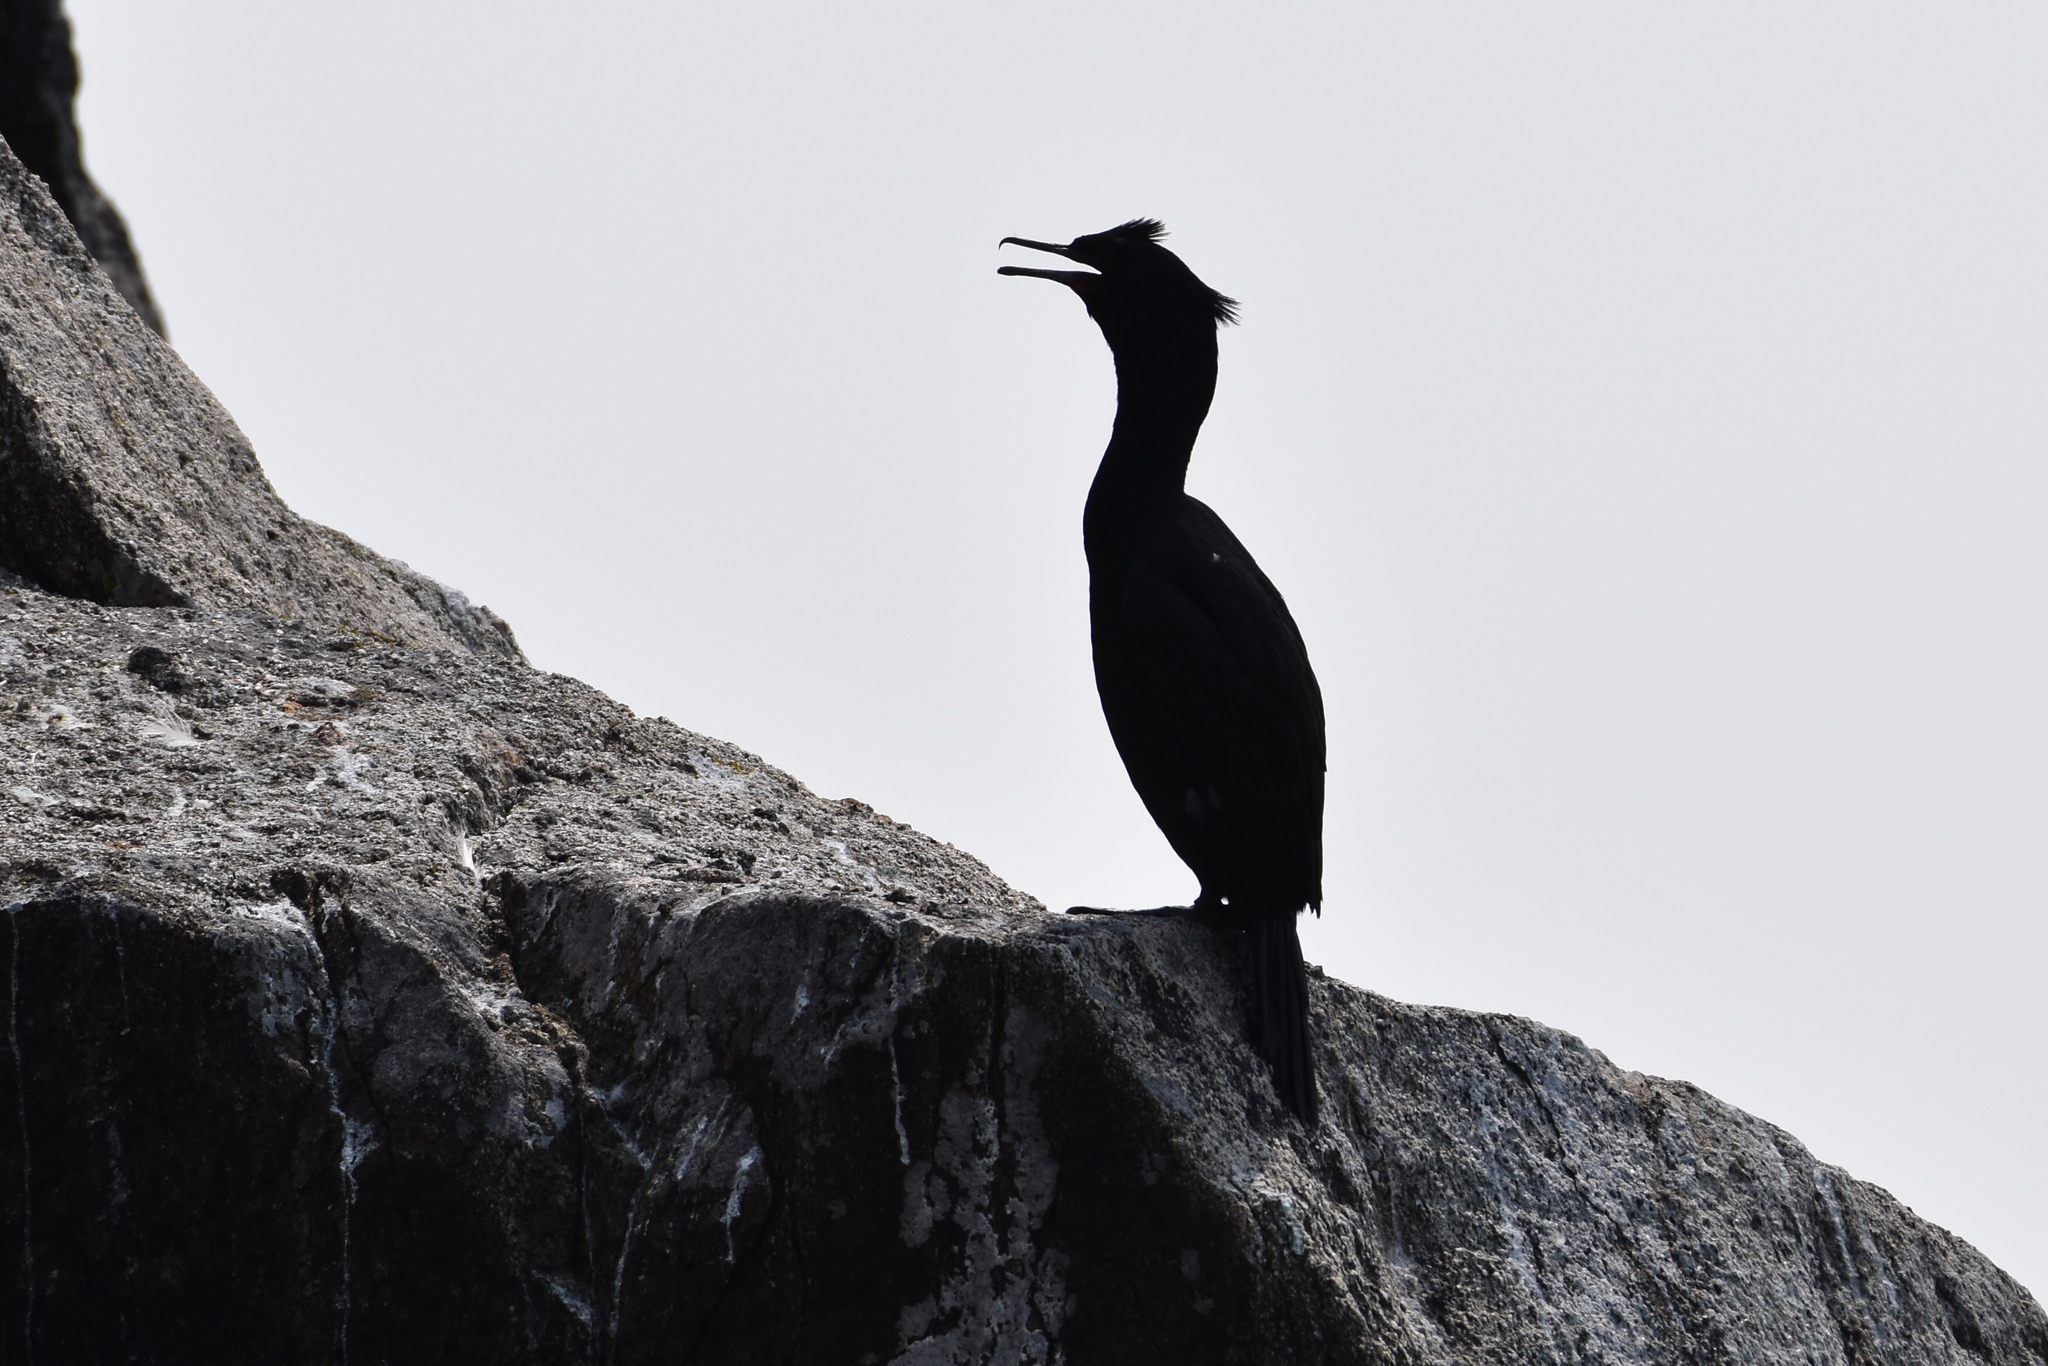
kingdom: Animalia
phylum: Chordata
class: Aves
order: Suliformes
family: Phalacrocoracidae
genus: Phalacrocorax
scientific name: Phalacrocorax pelagicus
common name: Pelagic cormorant
